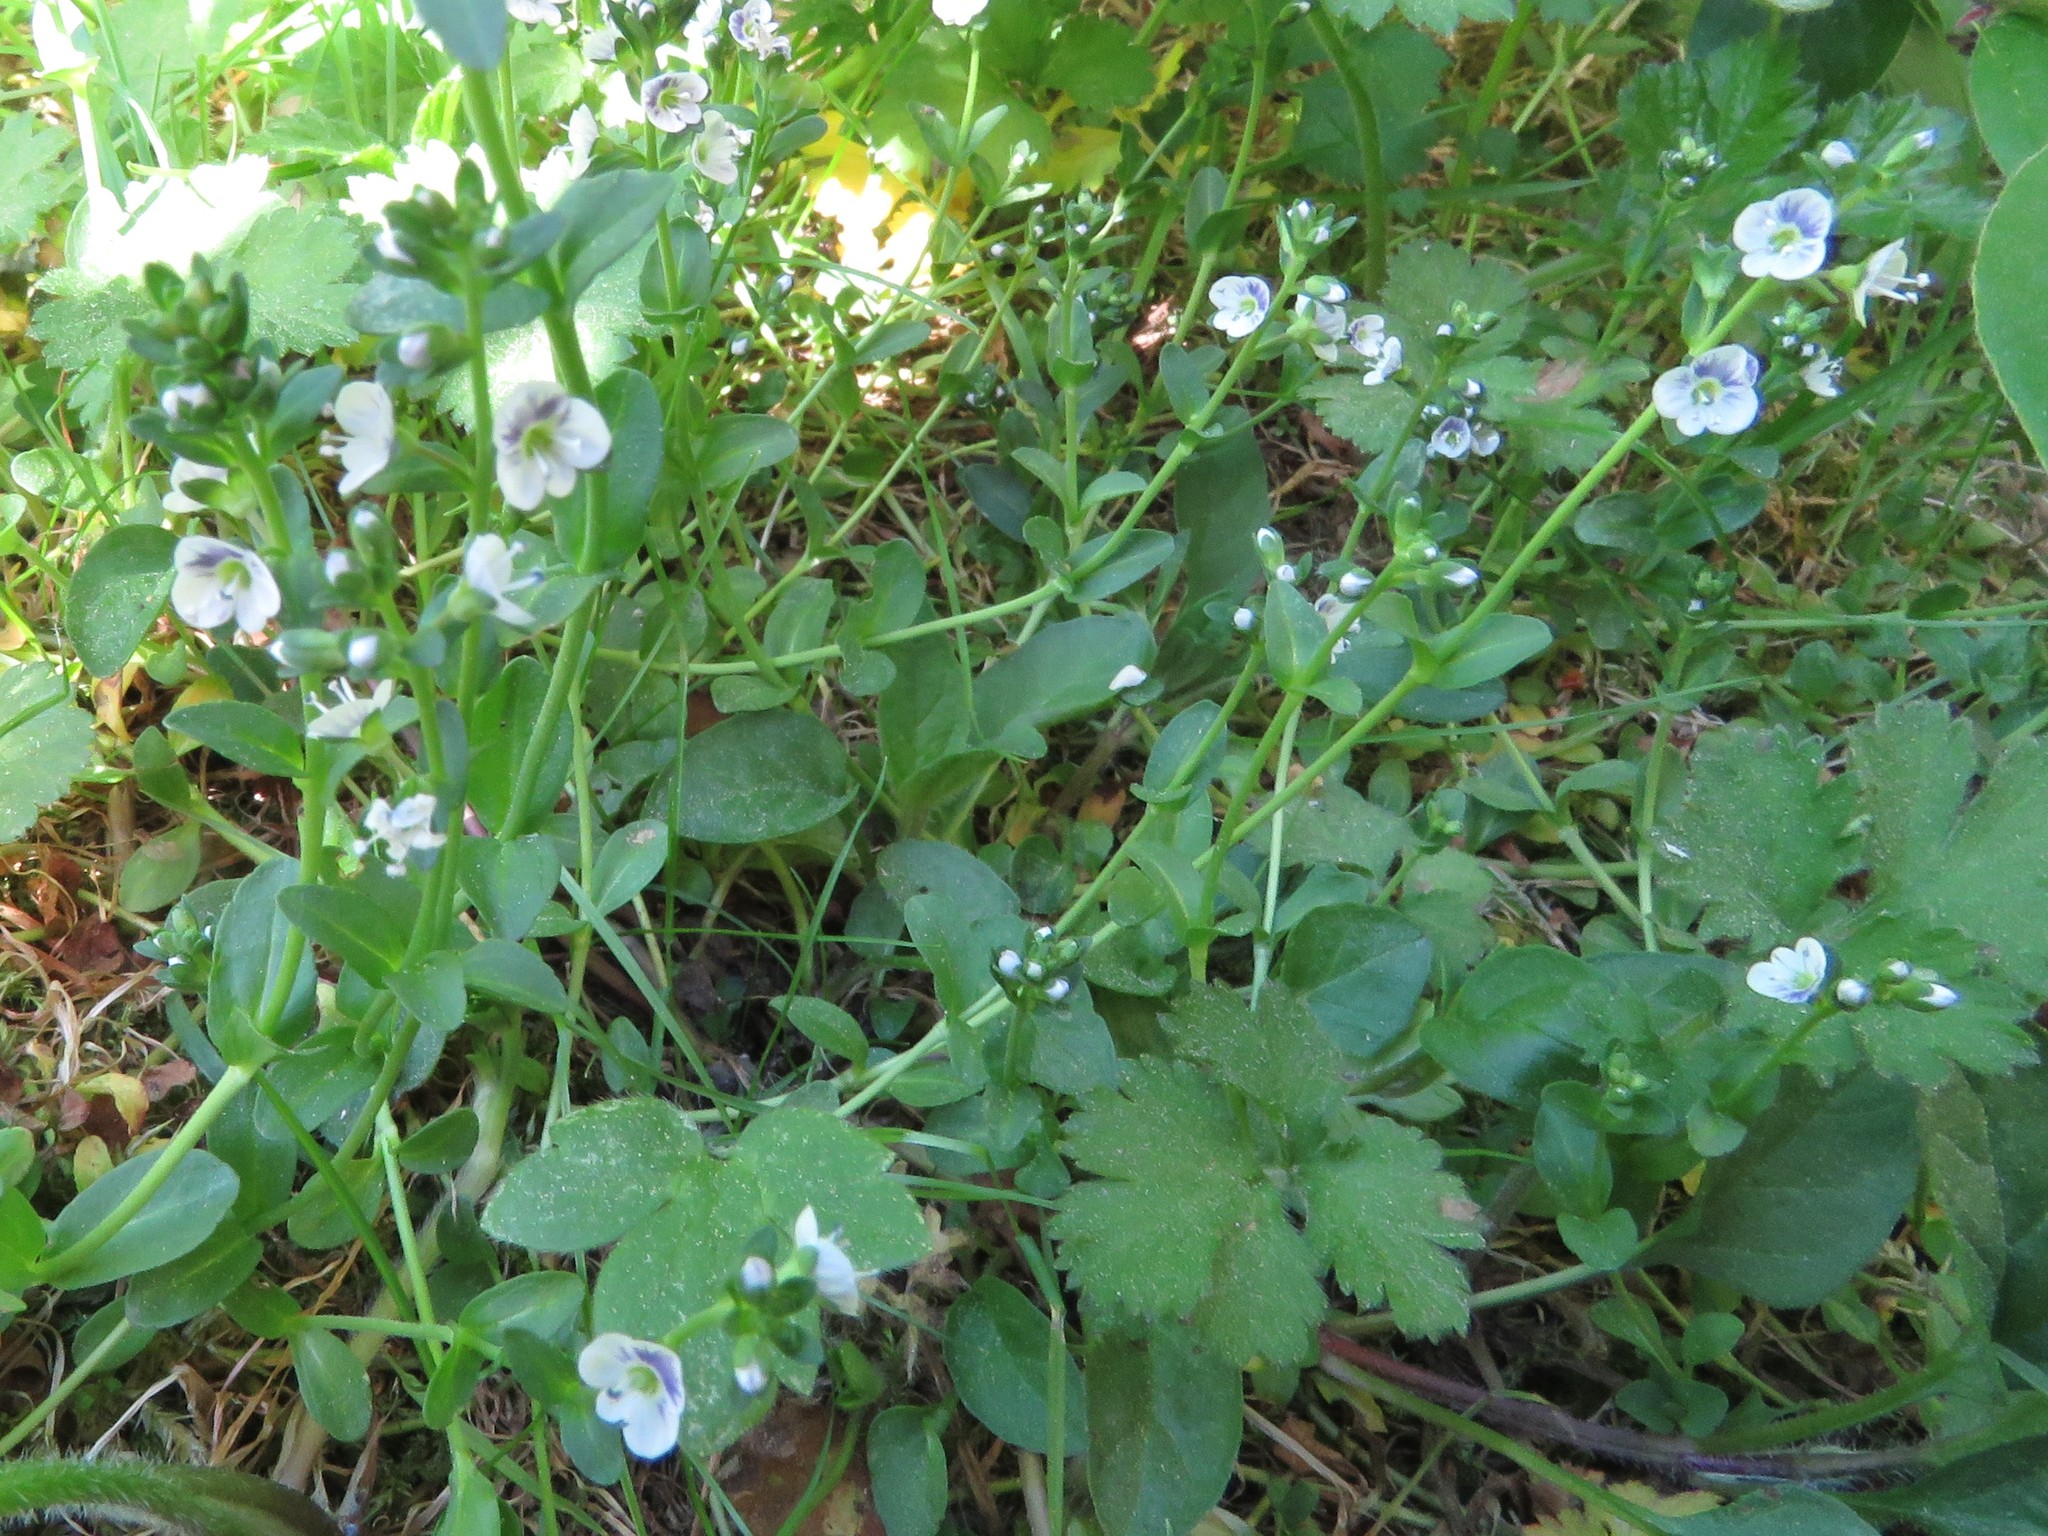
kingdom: Plantae
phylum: Tracheophyta
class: Magnoliopsida
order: Lamiales
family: Plantaginaceae
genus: Veronica
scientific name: Veronica serpyllifolia
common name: Thyme-leaved speedwell
